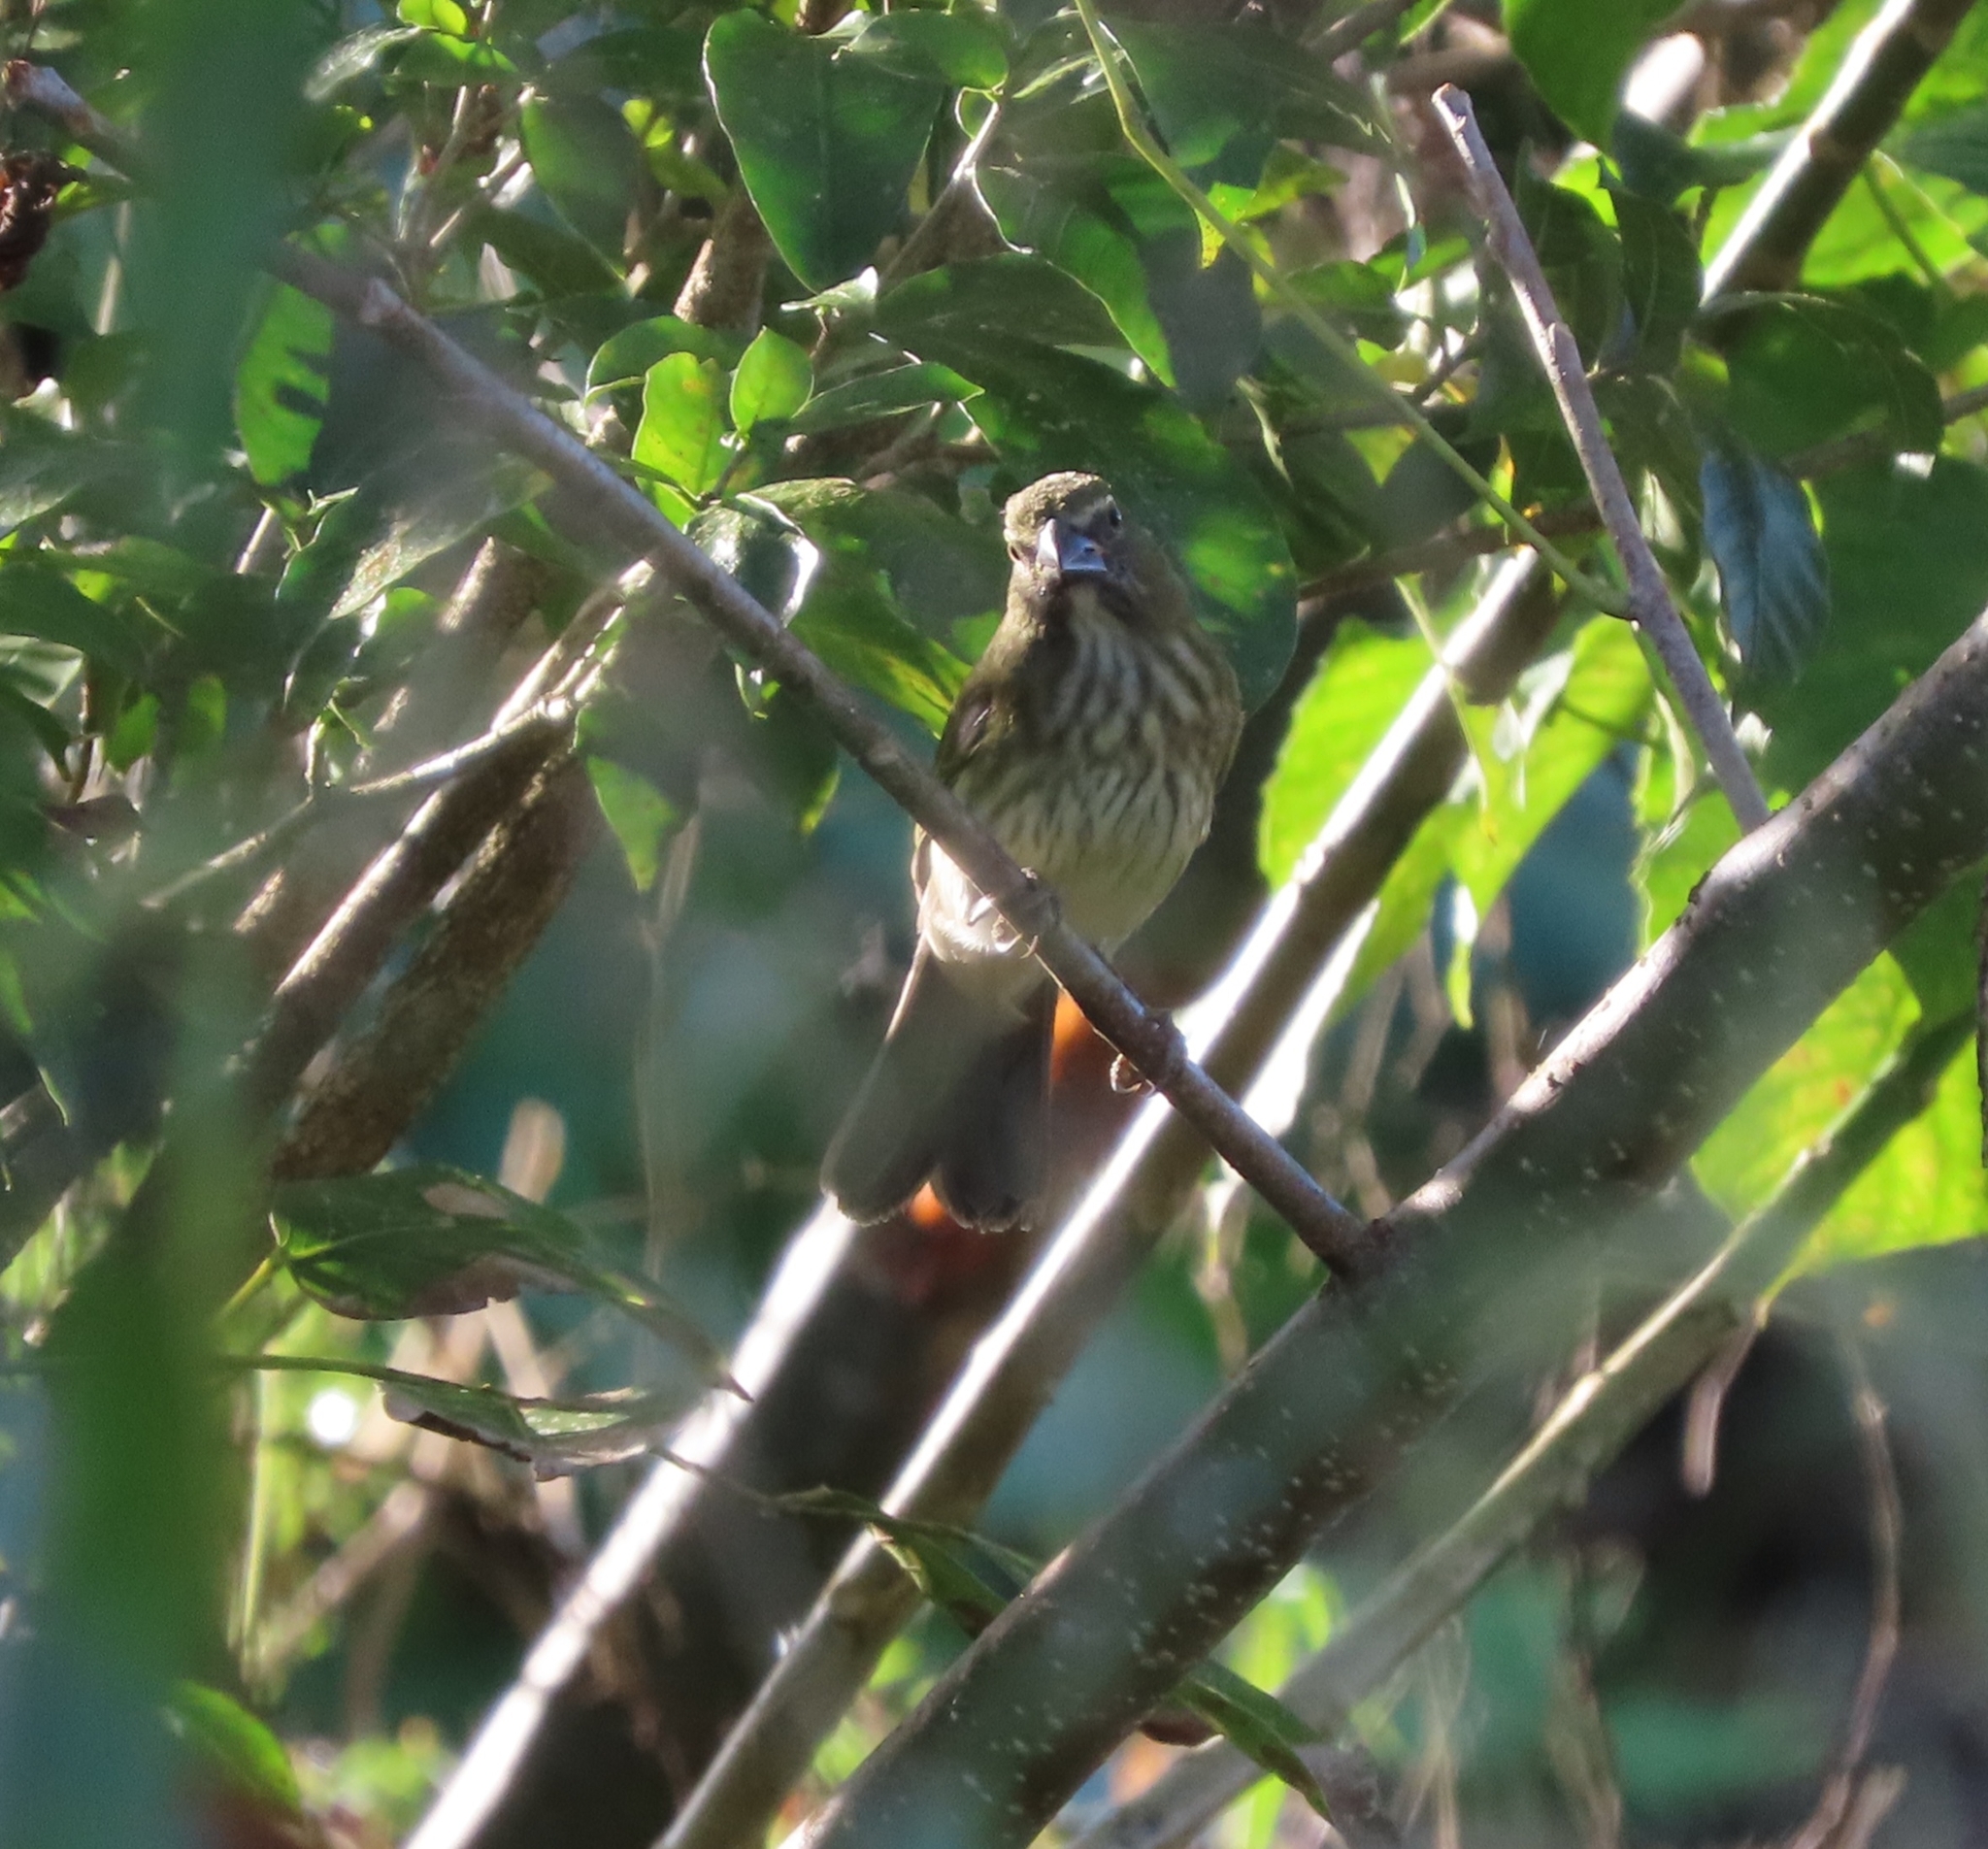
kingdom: Animalia
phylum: Chordata
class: Aves
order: Passeriformes
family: Thraupidae
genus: Saltator
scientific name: Saltator striatipectus
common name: Streaked saltator
